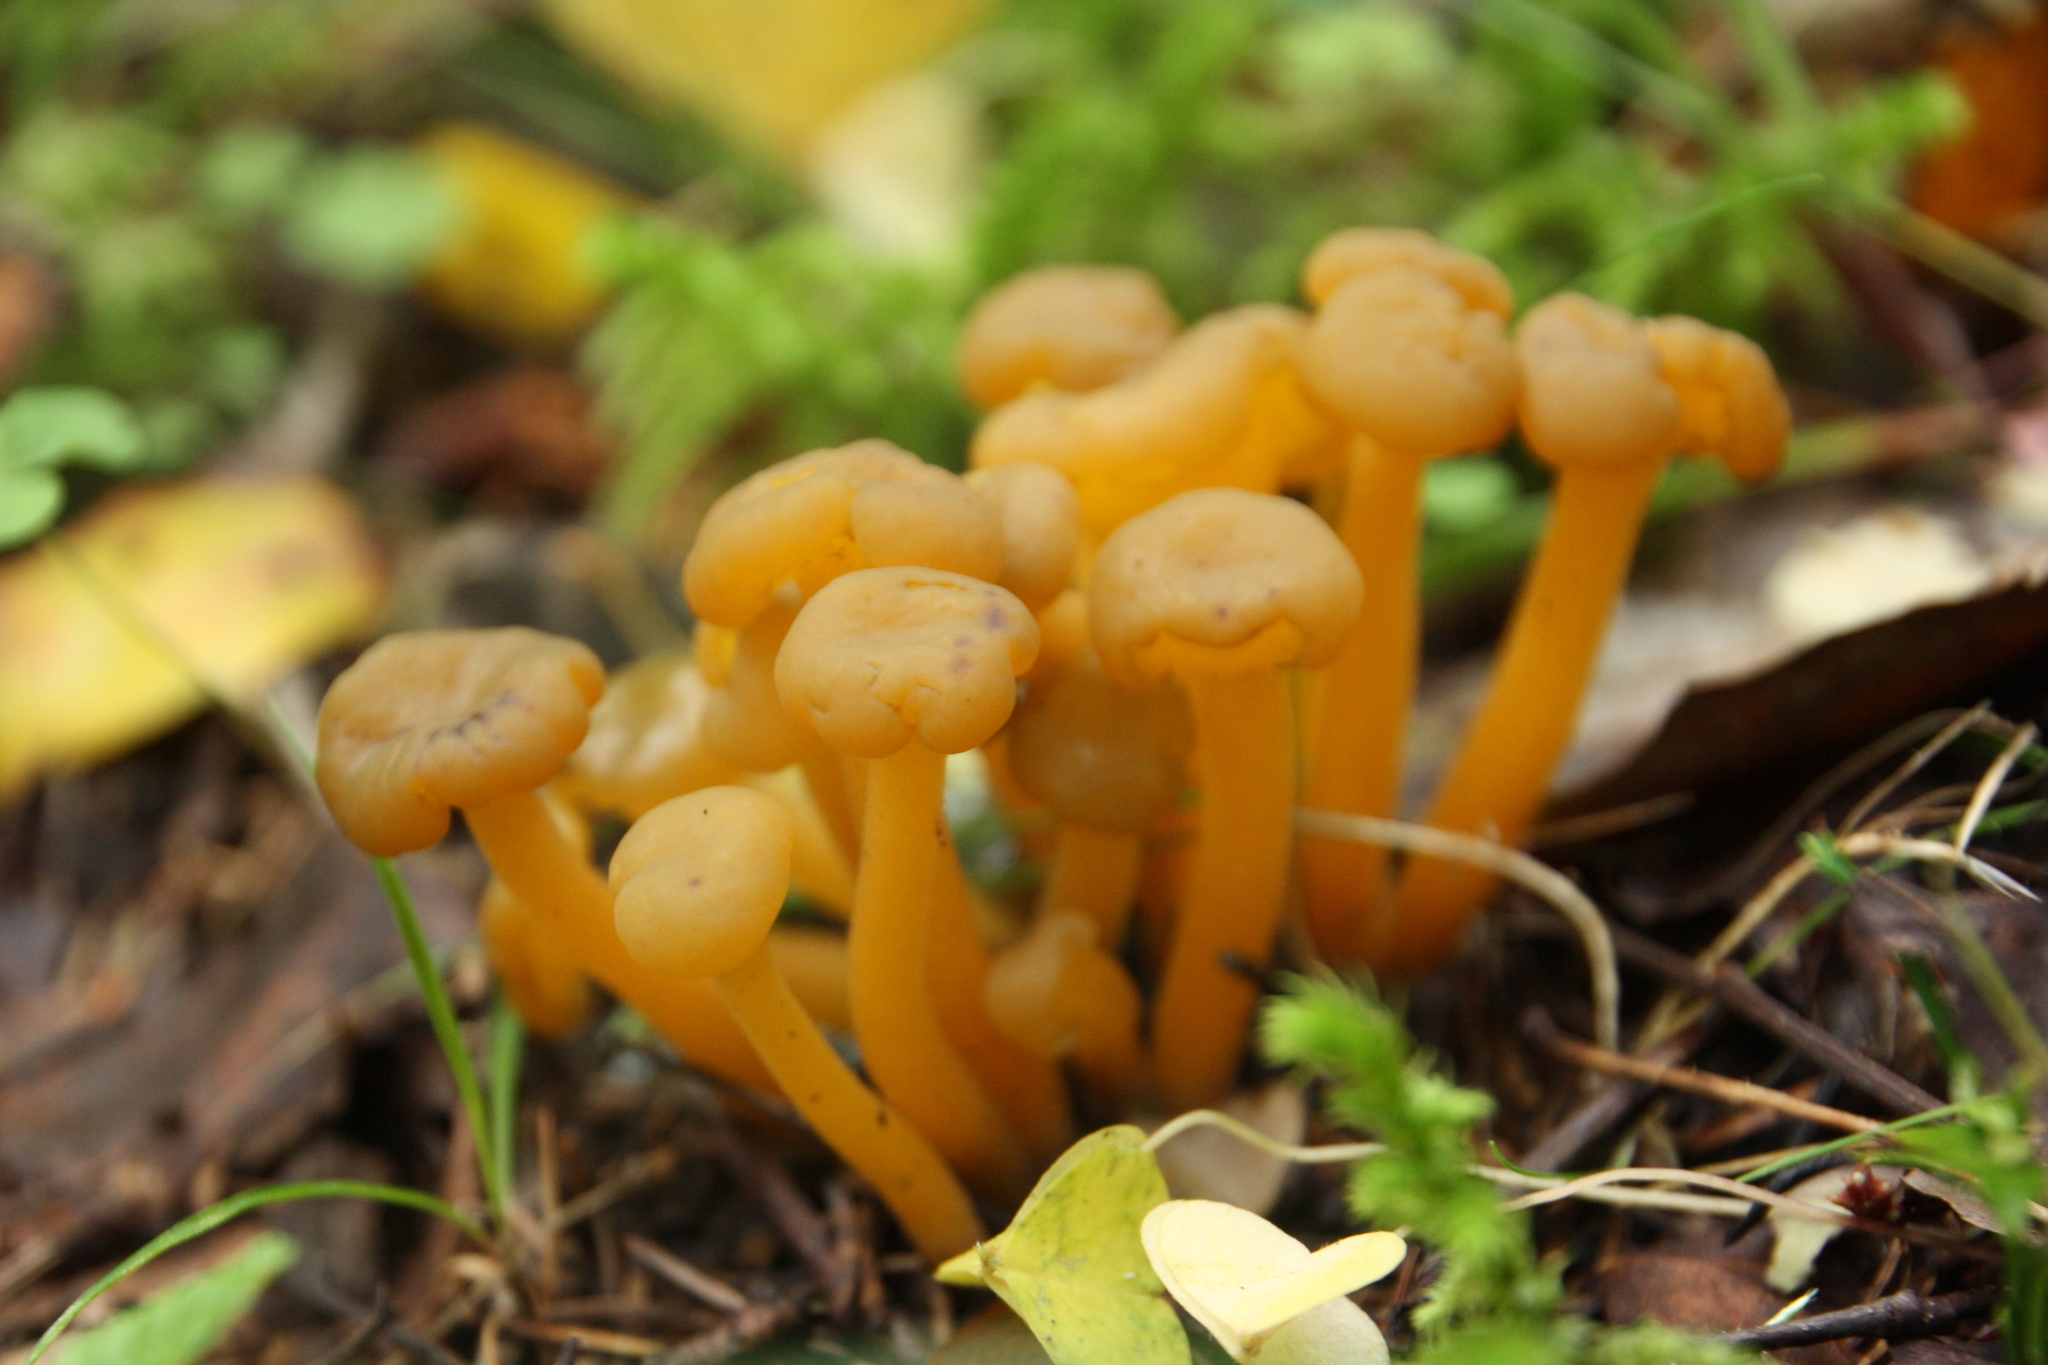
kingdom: Fungi
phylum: Ascomycota
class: Leotiomycetes
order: Leotiales
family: Leotiaceae
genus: Leotia
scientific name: Leotia lubrica
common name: Jellybaby
